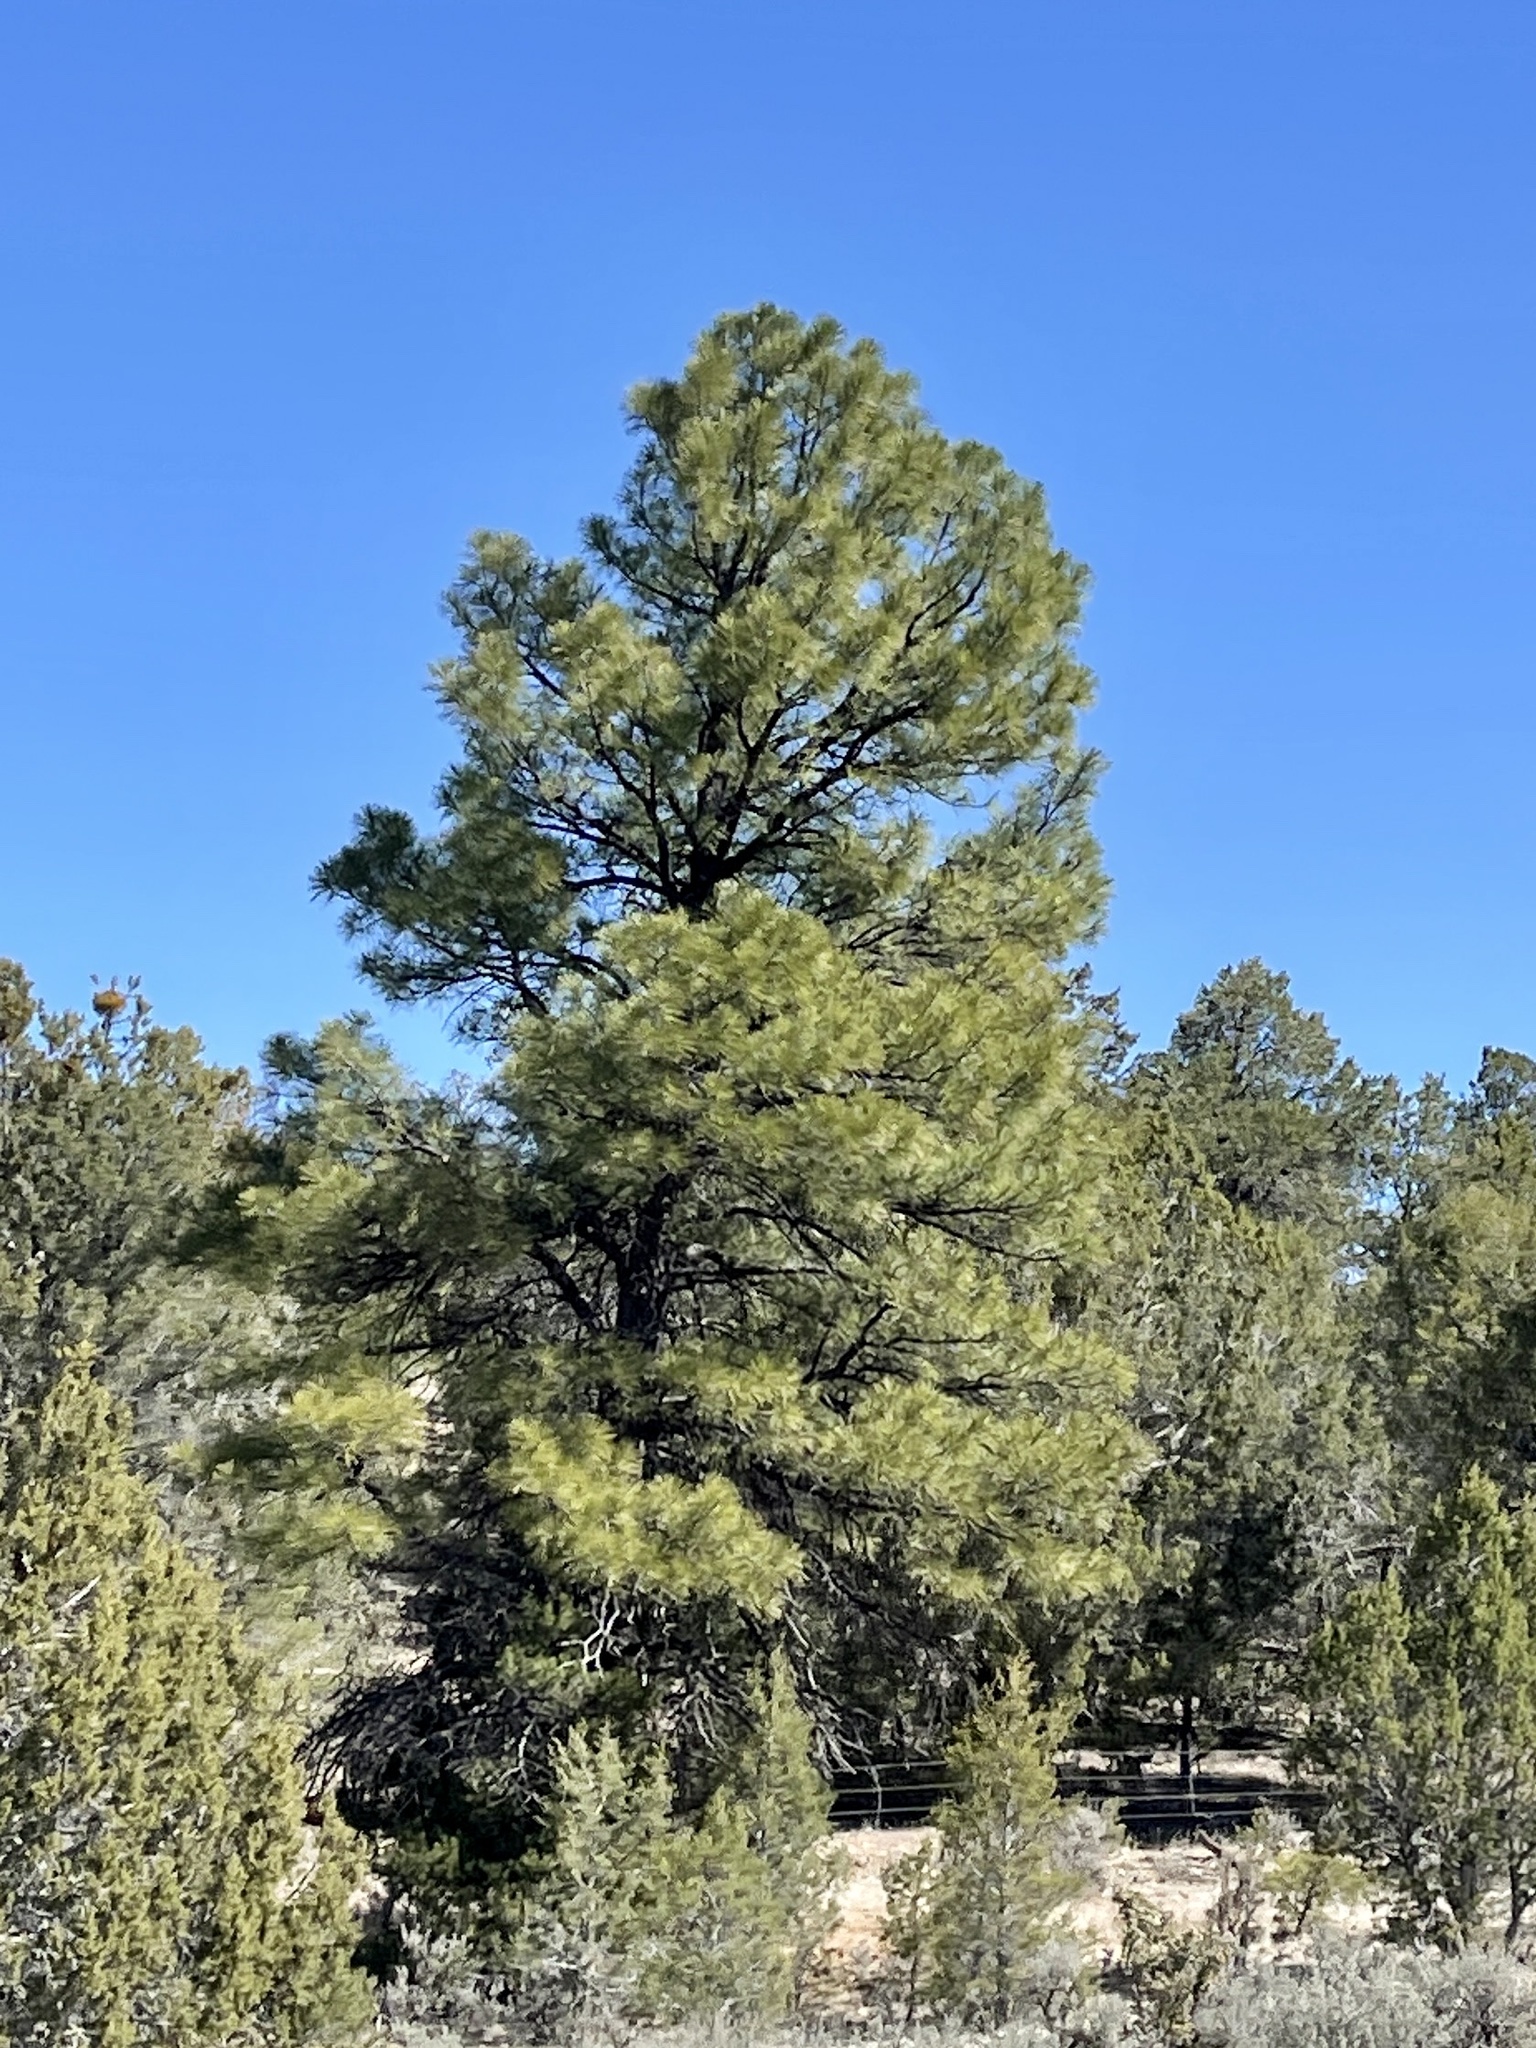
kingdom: Plantae
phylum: Tracheophyta
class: Pinopsida
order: Pinales
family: Pinaceae
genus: Pinus
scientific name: Pinus ponderosa
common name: Western yellow-pine
